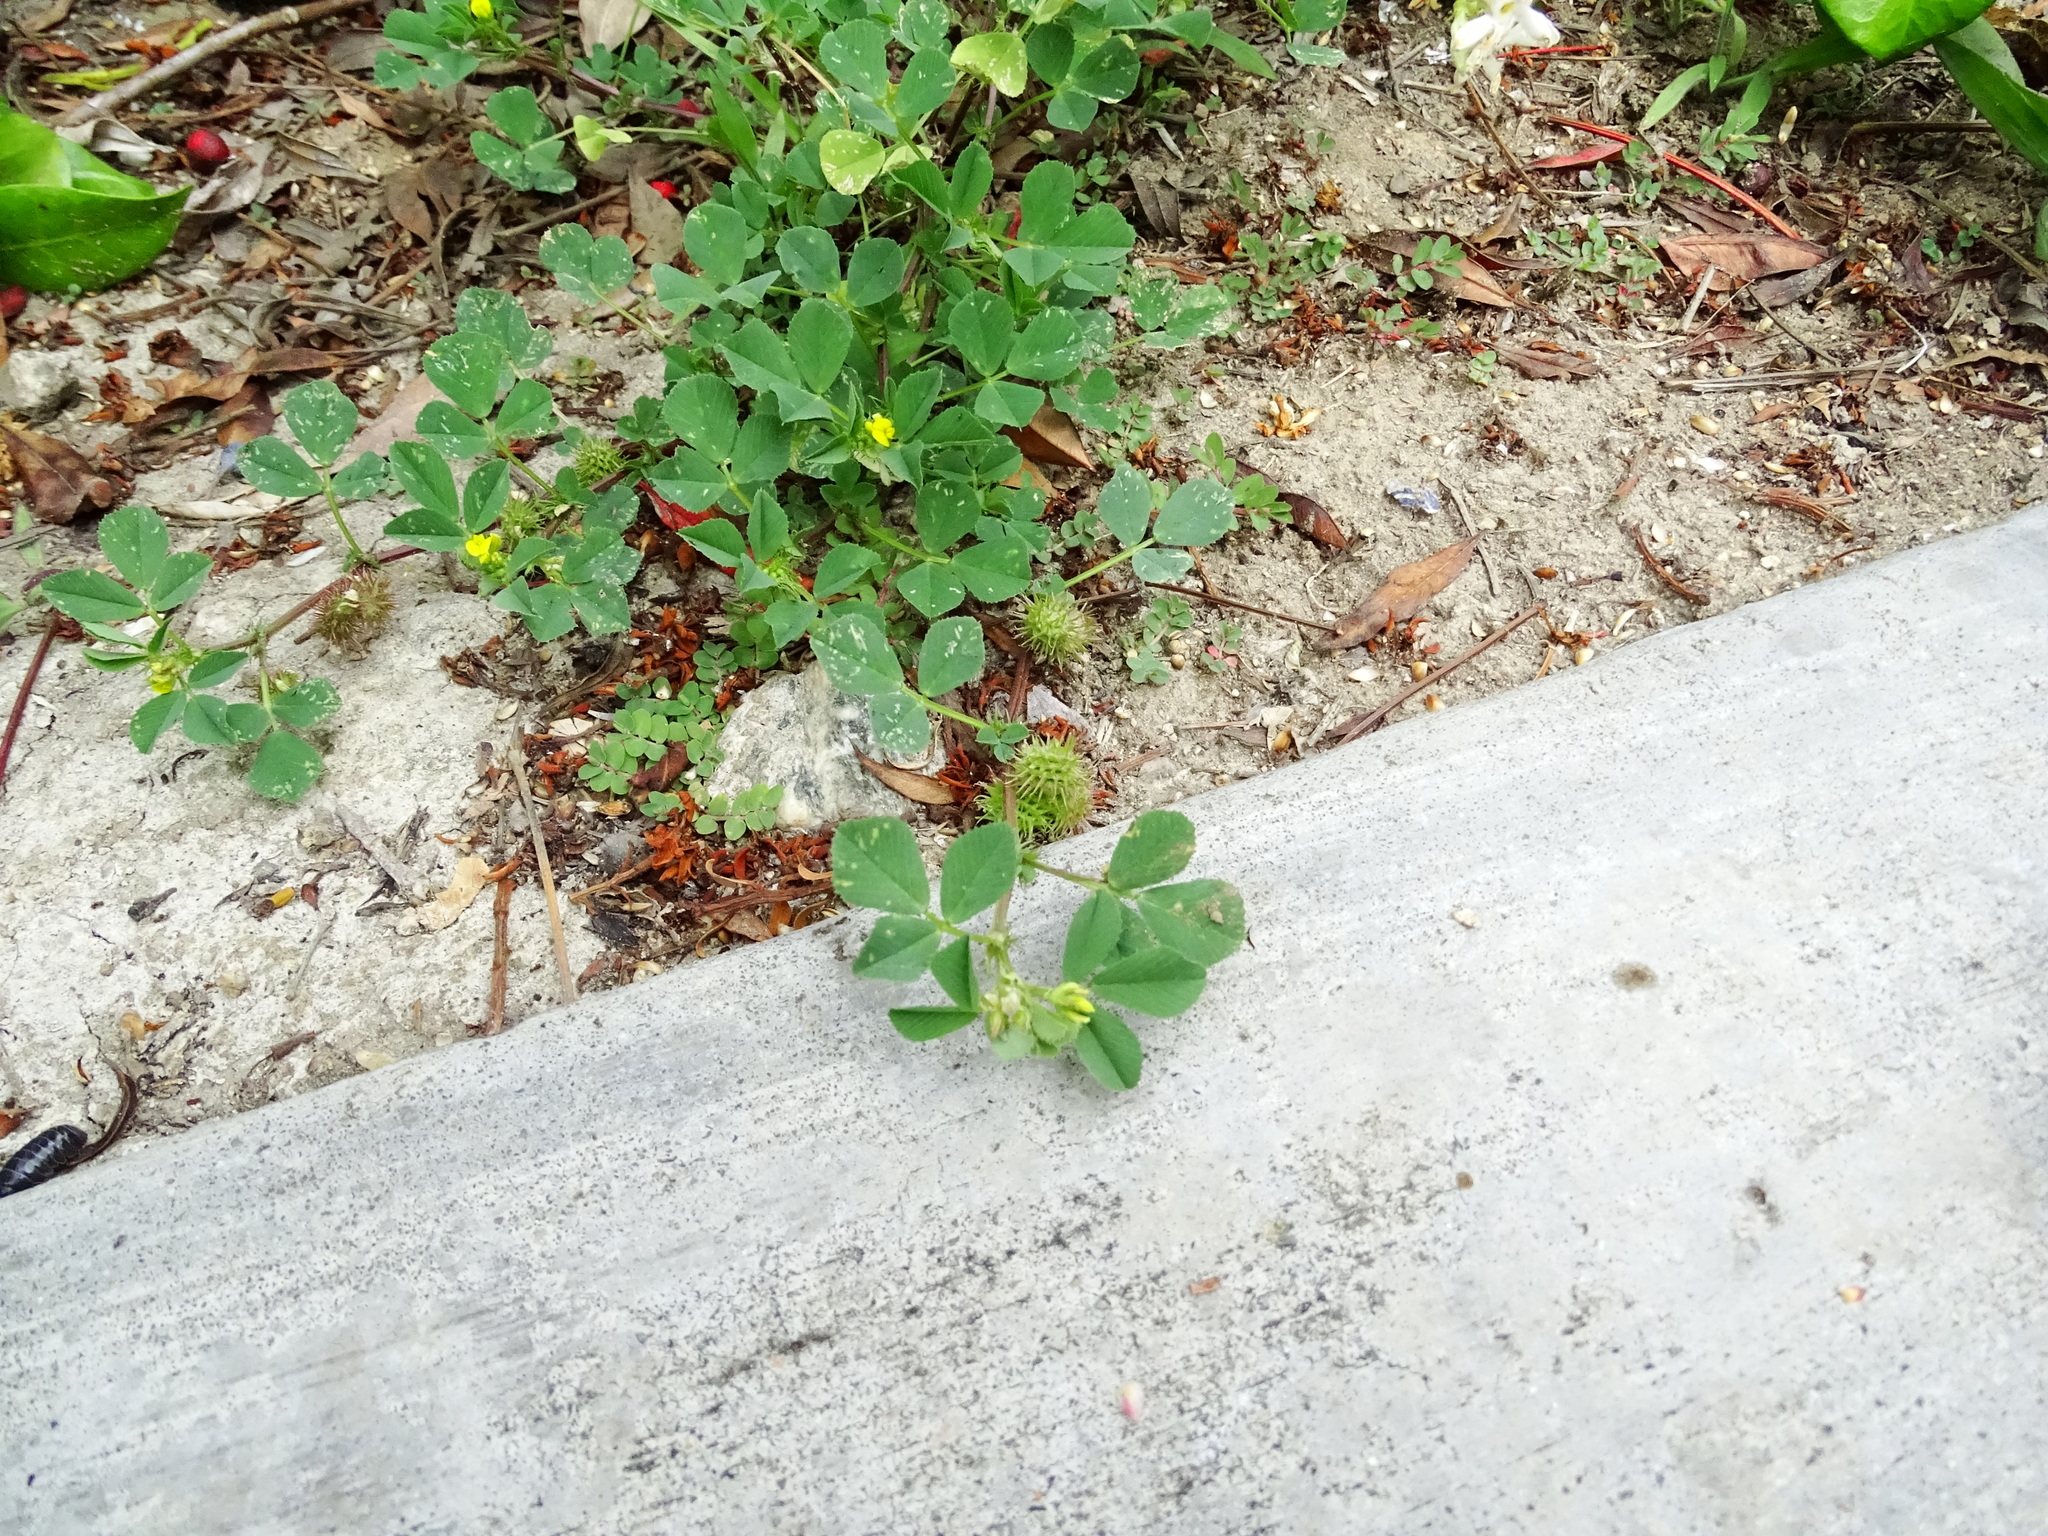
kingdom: Plantae
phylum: Tracheophyta
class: Magnoliopsida
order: Fabales
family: Fabaceae
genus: Medicago
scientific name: Medicago polymorpha
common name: Burclover
